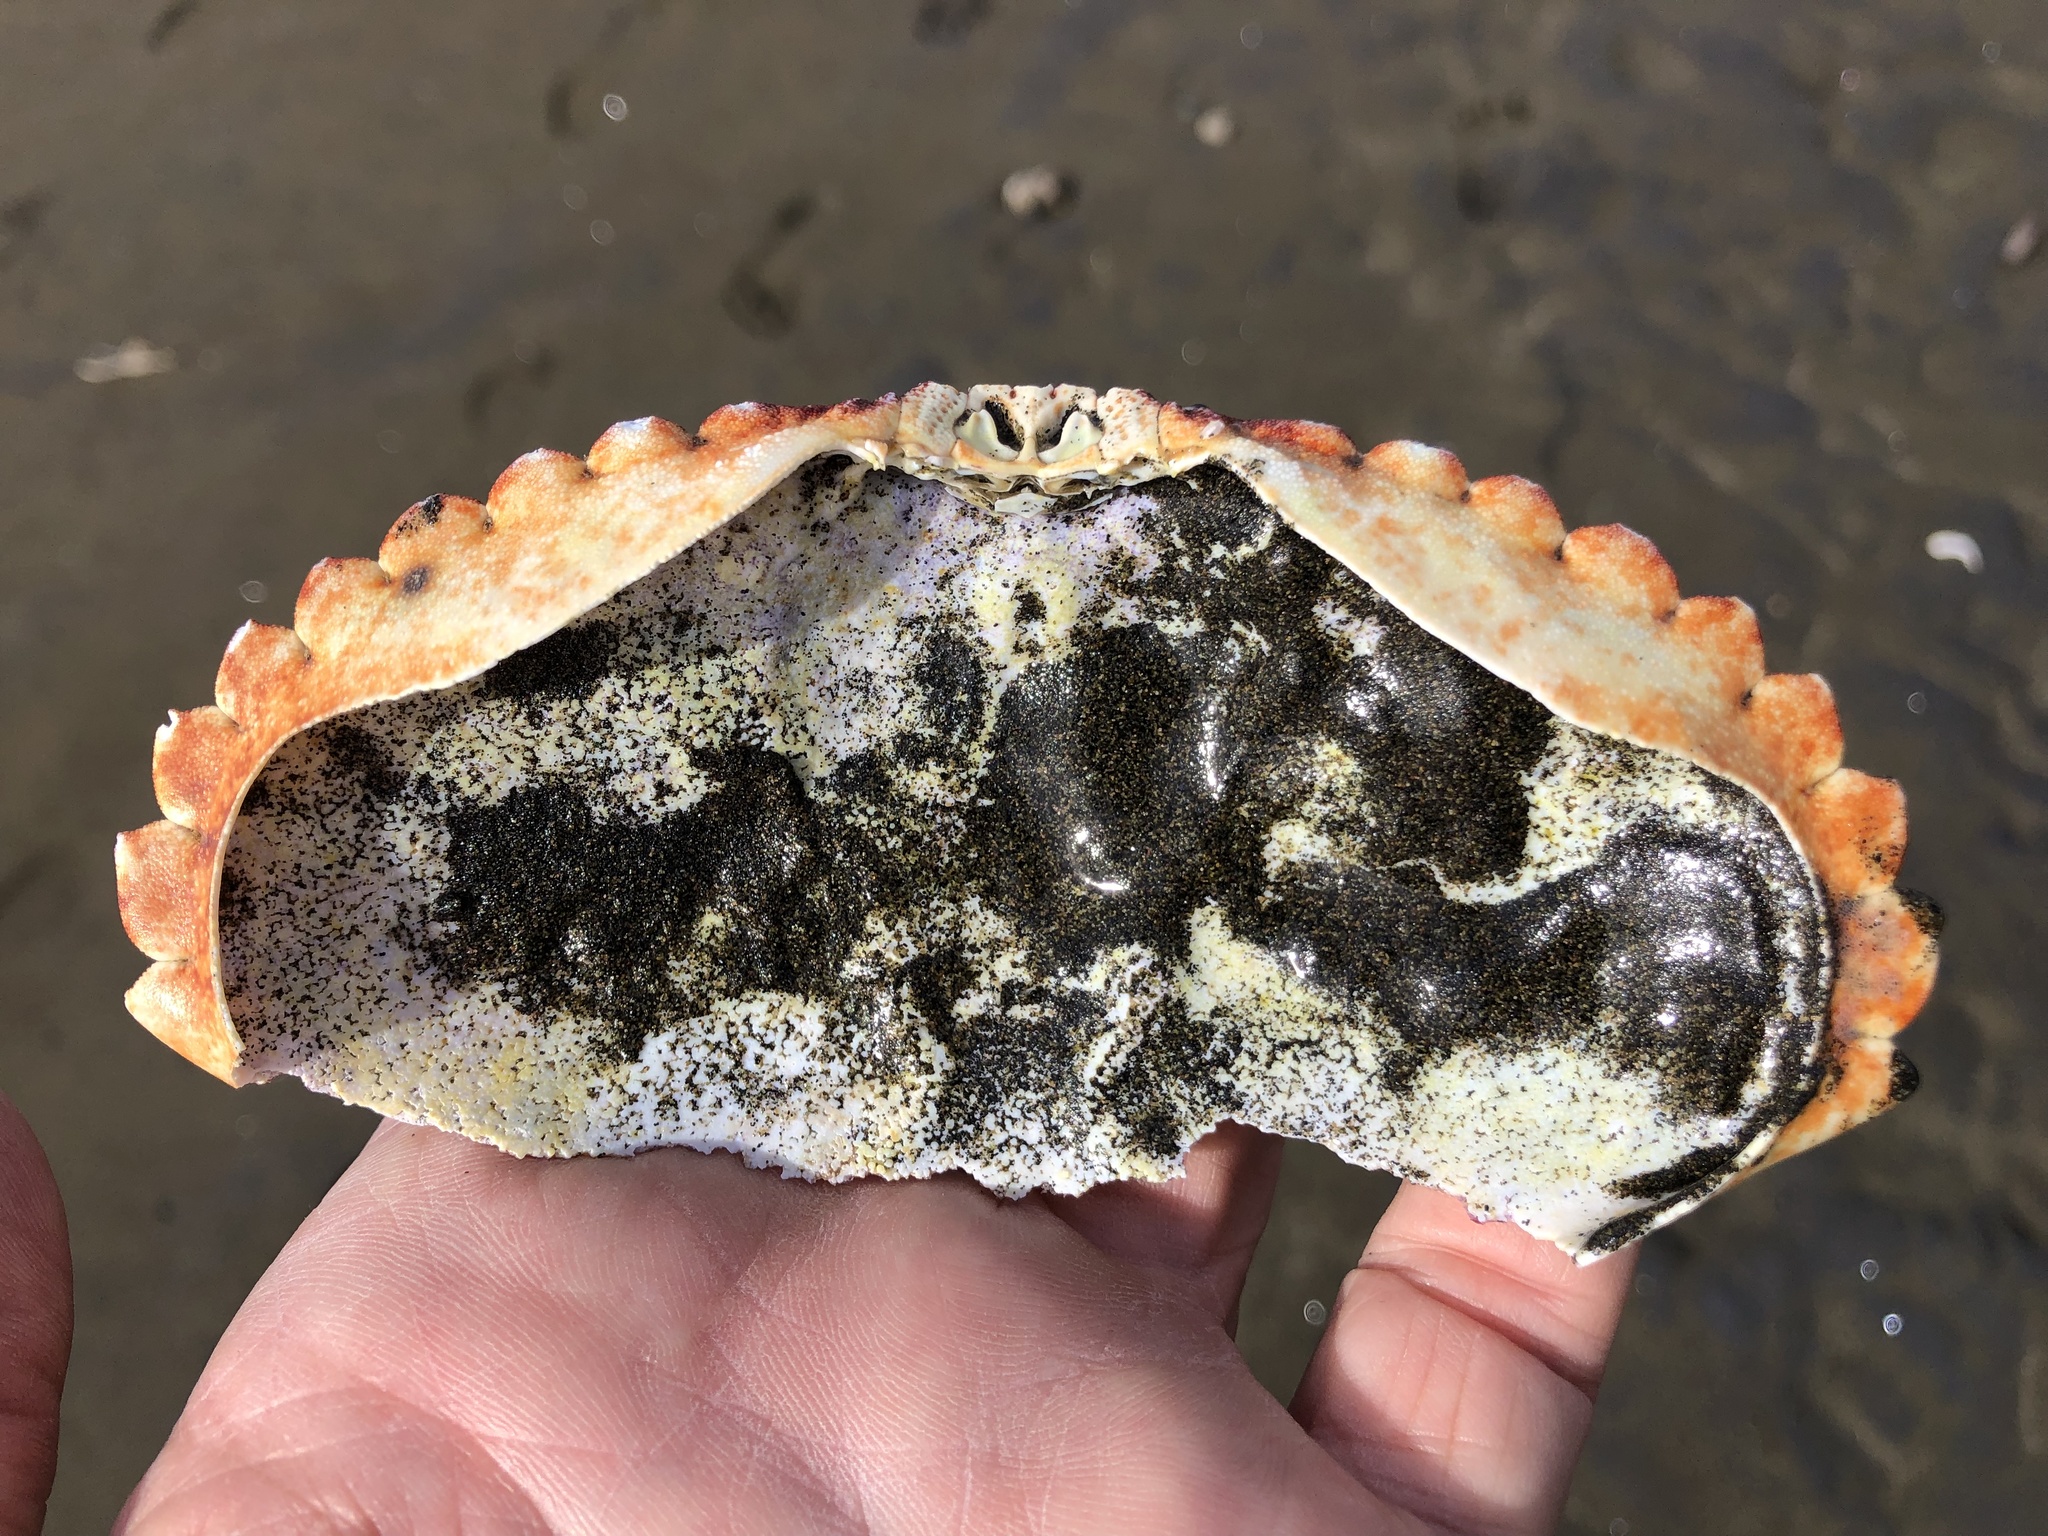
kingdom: Animalia
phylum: Arthropoda
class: Malacostraca
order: Decapoda
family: Cancridae
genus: Cancer
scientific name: Cancer productus
